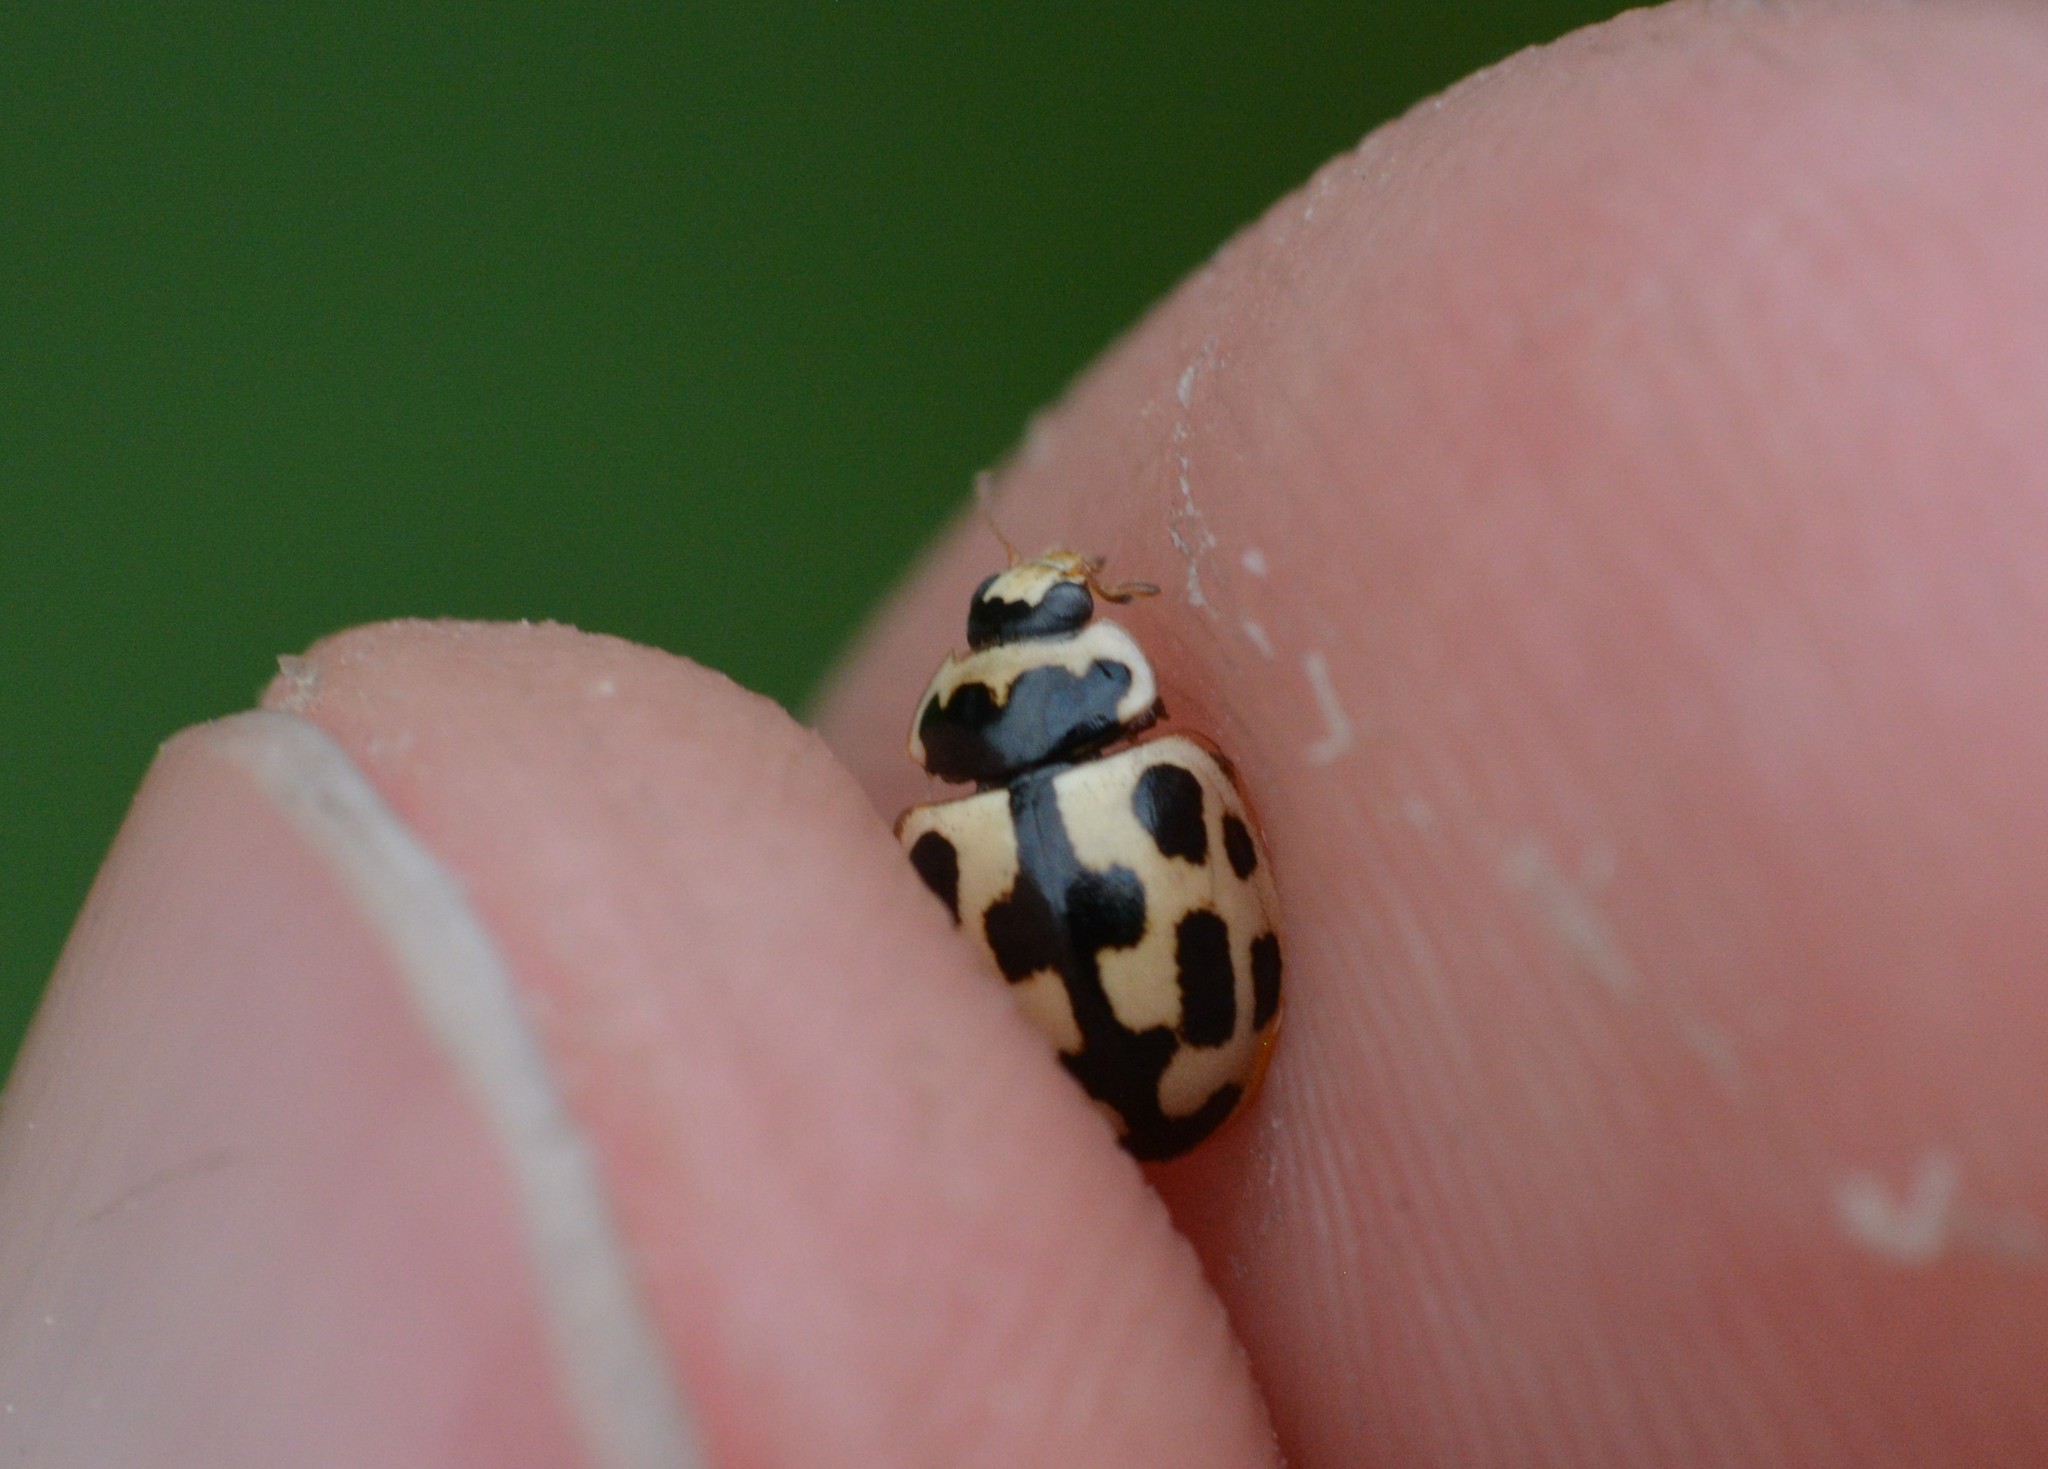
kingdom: Animalia
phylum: Arthropoda
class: Insecta
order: Coleoptera
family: Coccinellidae
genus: Propylaea
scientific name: Propylaea quatuordecimpunctata
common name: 14-spotted ladybird beetle
